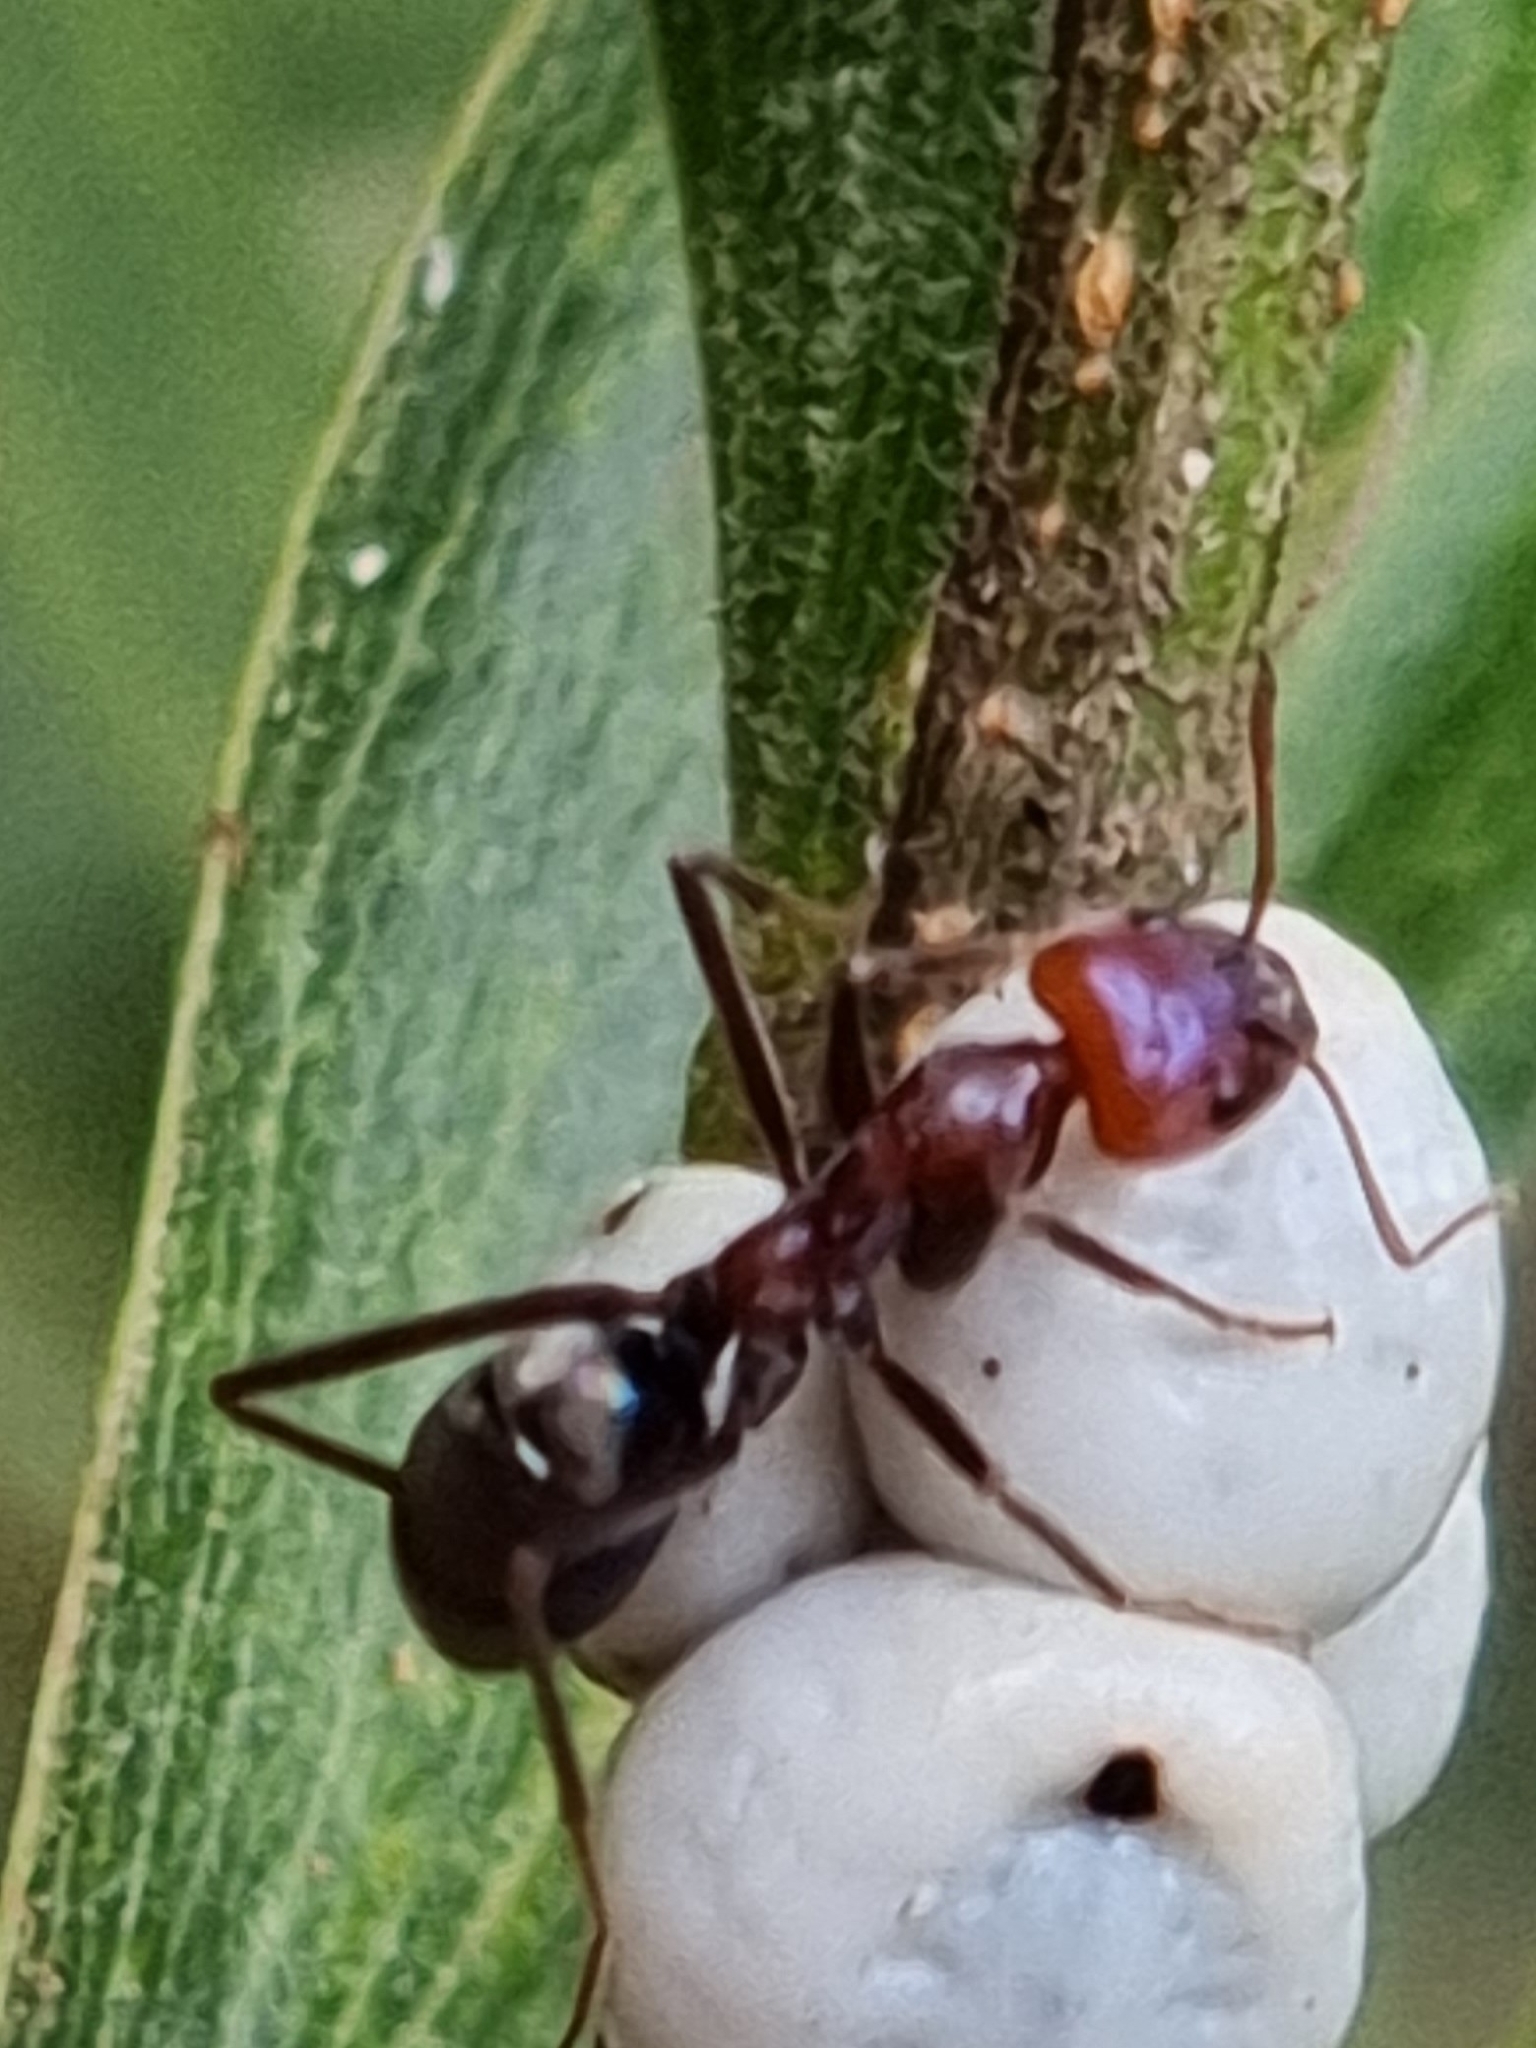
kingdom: Animalia
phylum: Arthropoda
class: Insecta
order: Hymenoptera
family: Formicidae
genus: Iridomyrmex
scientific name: Iridomyrmex purpureus
